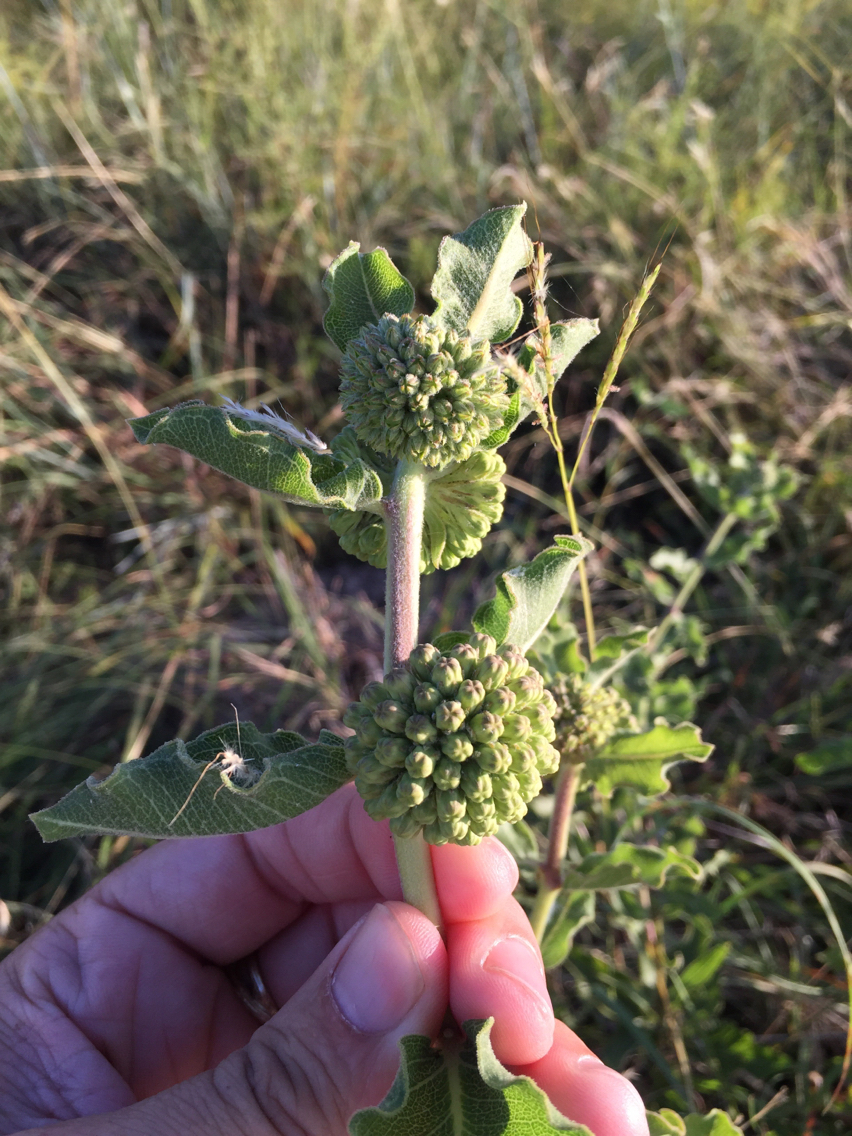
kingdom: Plantae
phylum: Tracheophyta
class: Magnoliopsida
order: Gentianales
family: Apocynaceae
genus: Asclepias
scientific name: Asclepias viridiflora
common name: Green comet milkweed
